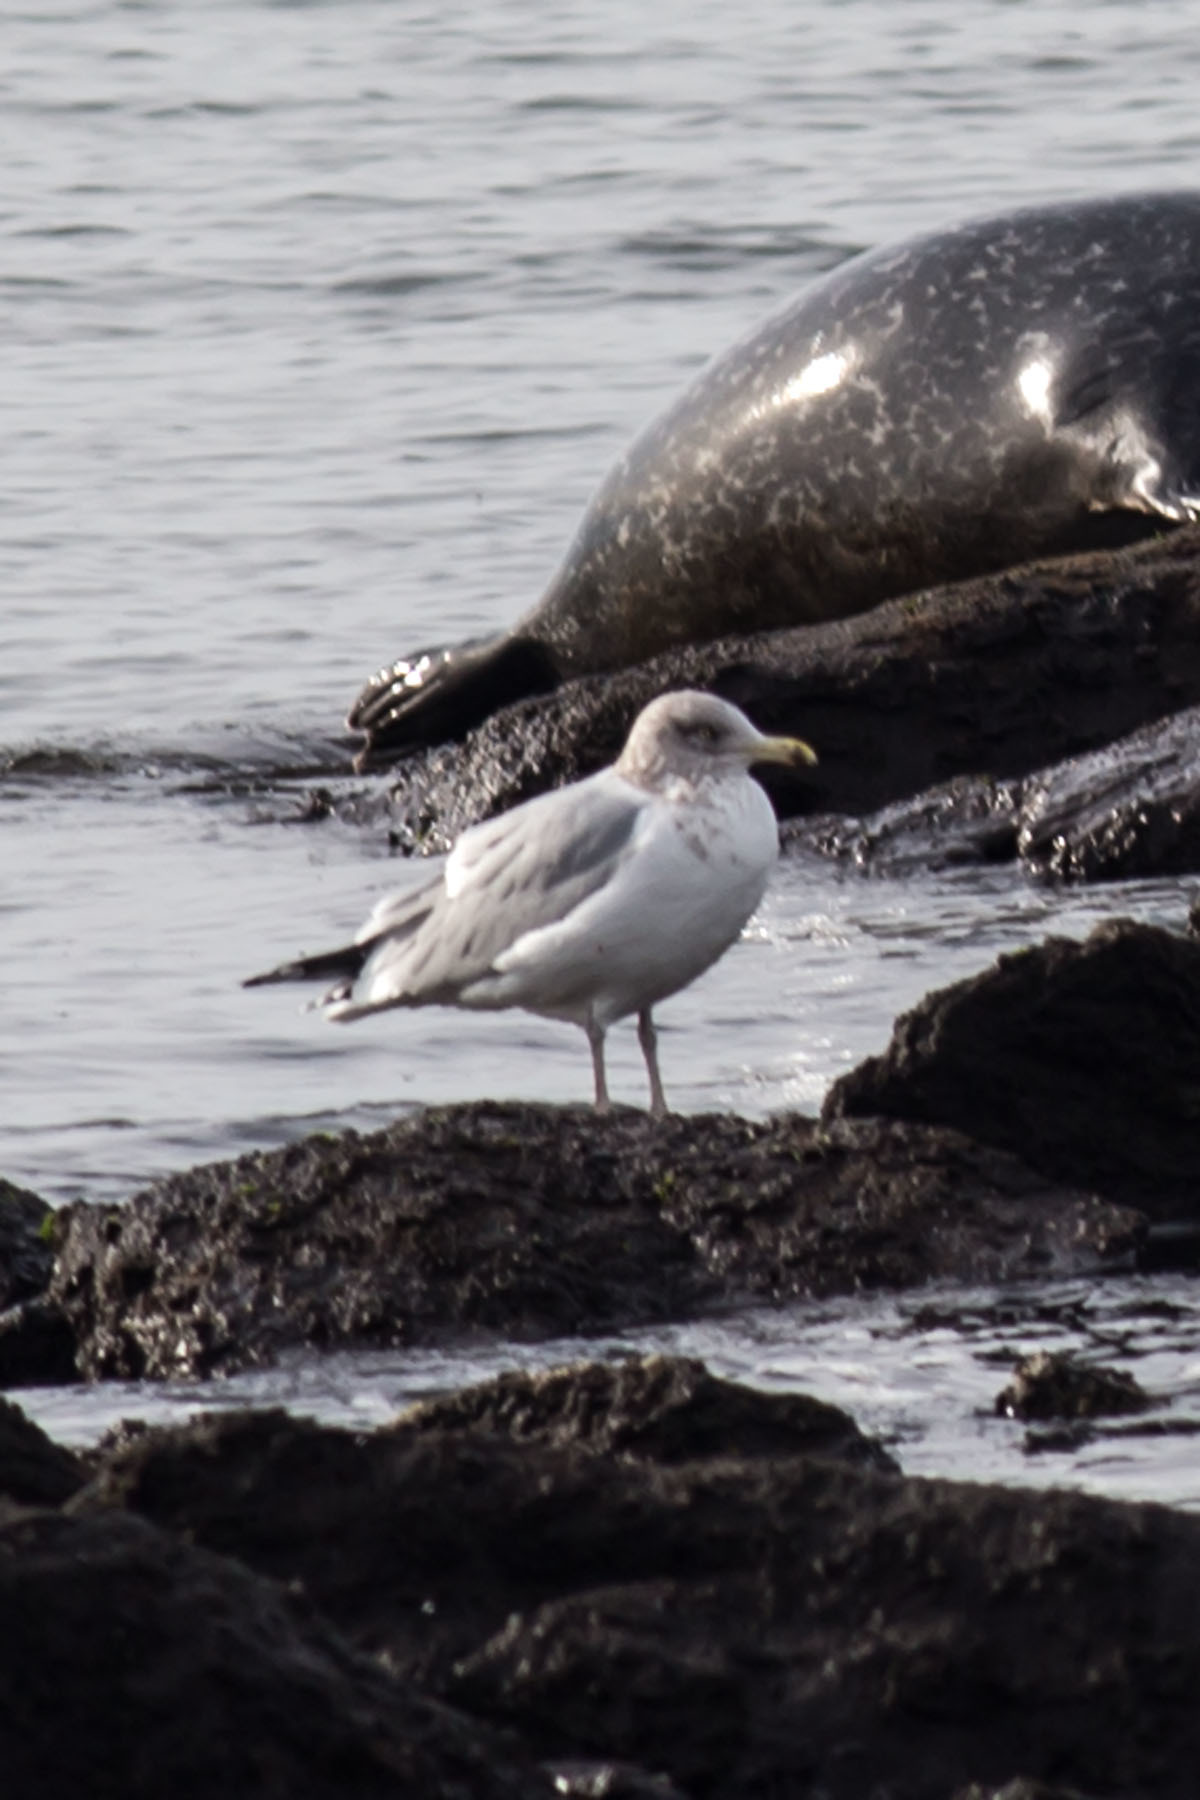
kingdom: Animalia
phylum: Chordata
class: Aves
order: Charadriiformes
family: Laridae
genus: Larus
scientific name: Larus argentatus
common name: Herring gull
